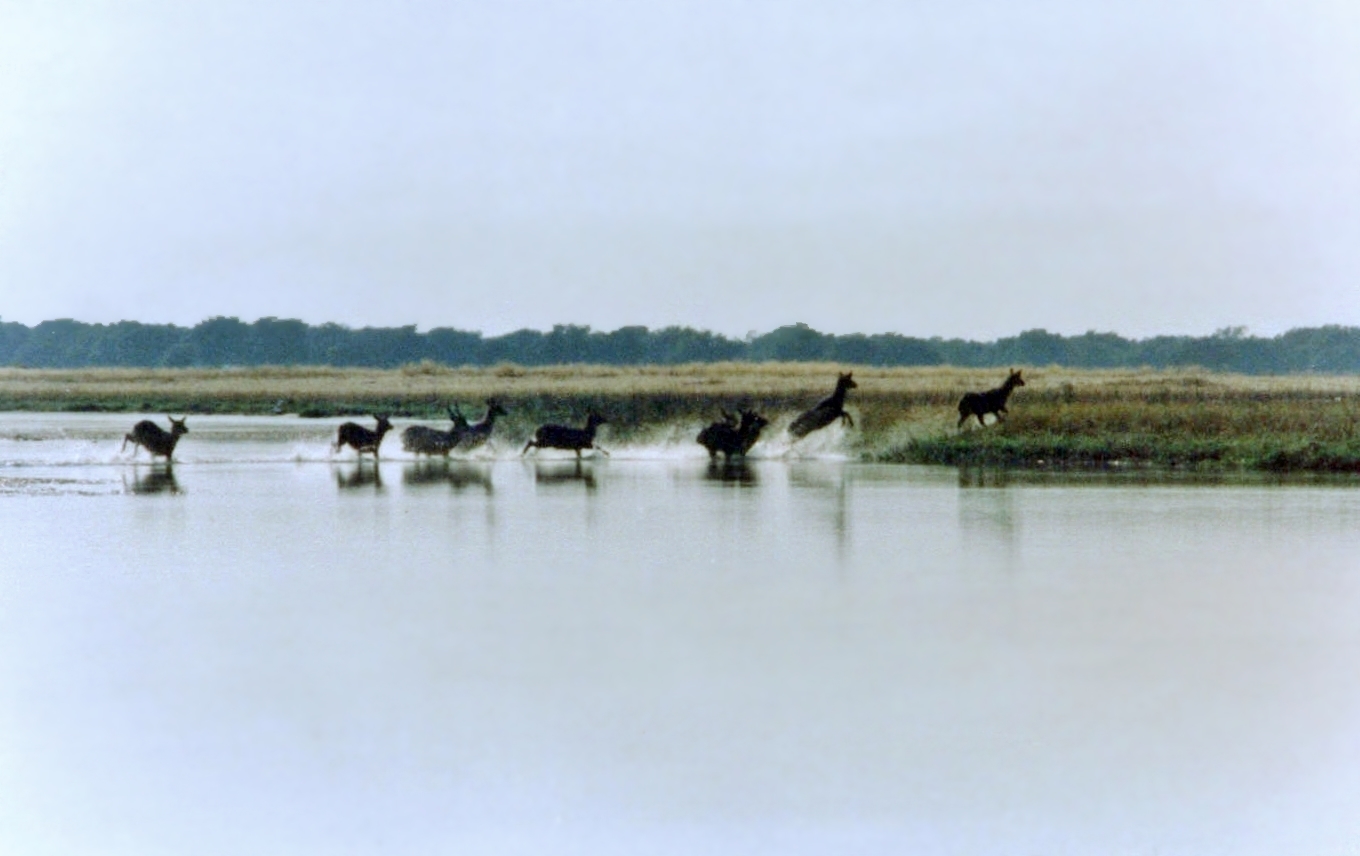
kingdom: Animalia
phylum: Chordata
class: Mammalia
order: Artiodactyla
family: Bovidae
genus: Kobus
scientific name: Kobus ellipsiprymnus
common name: Waterbuck
